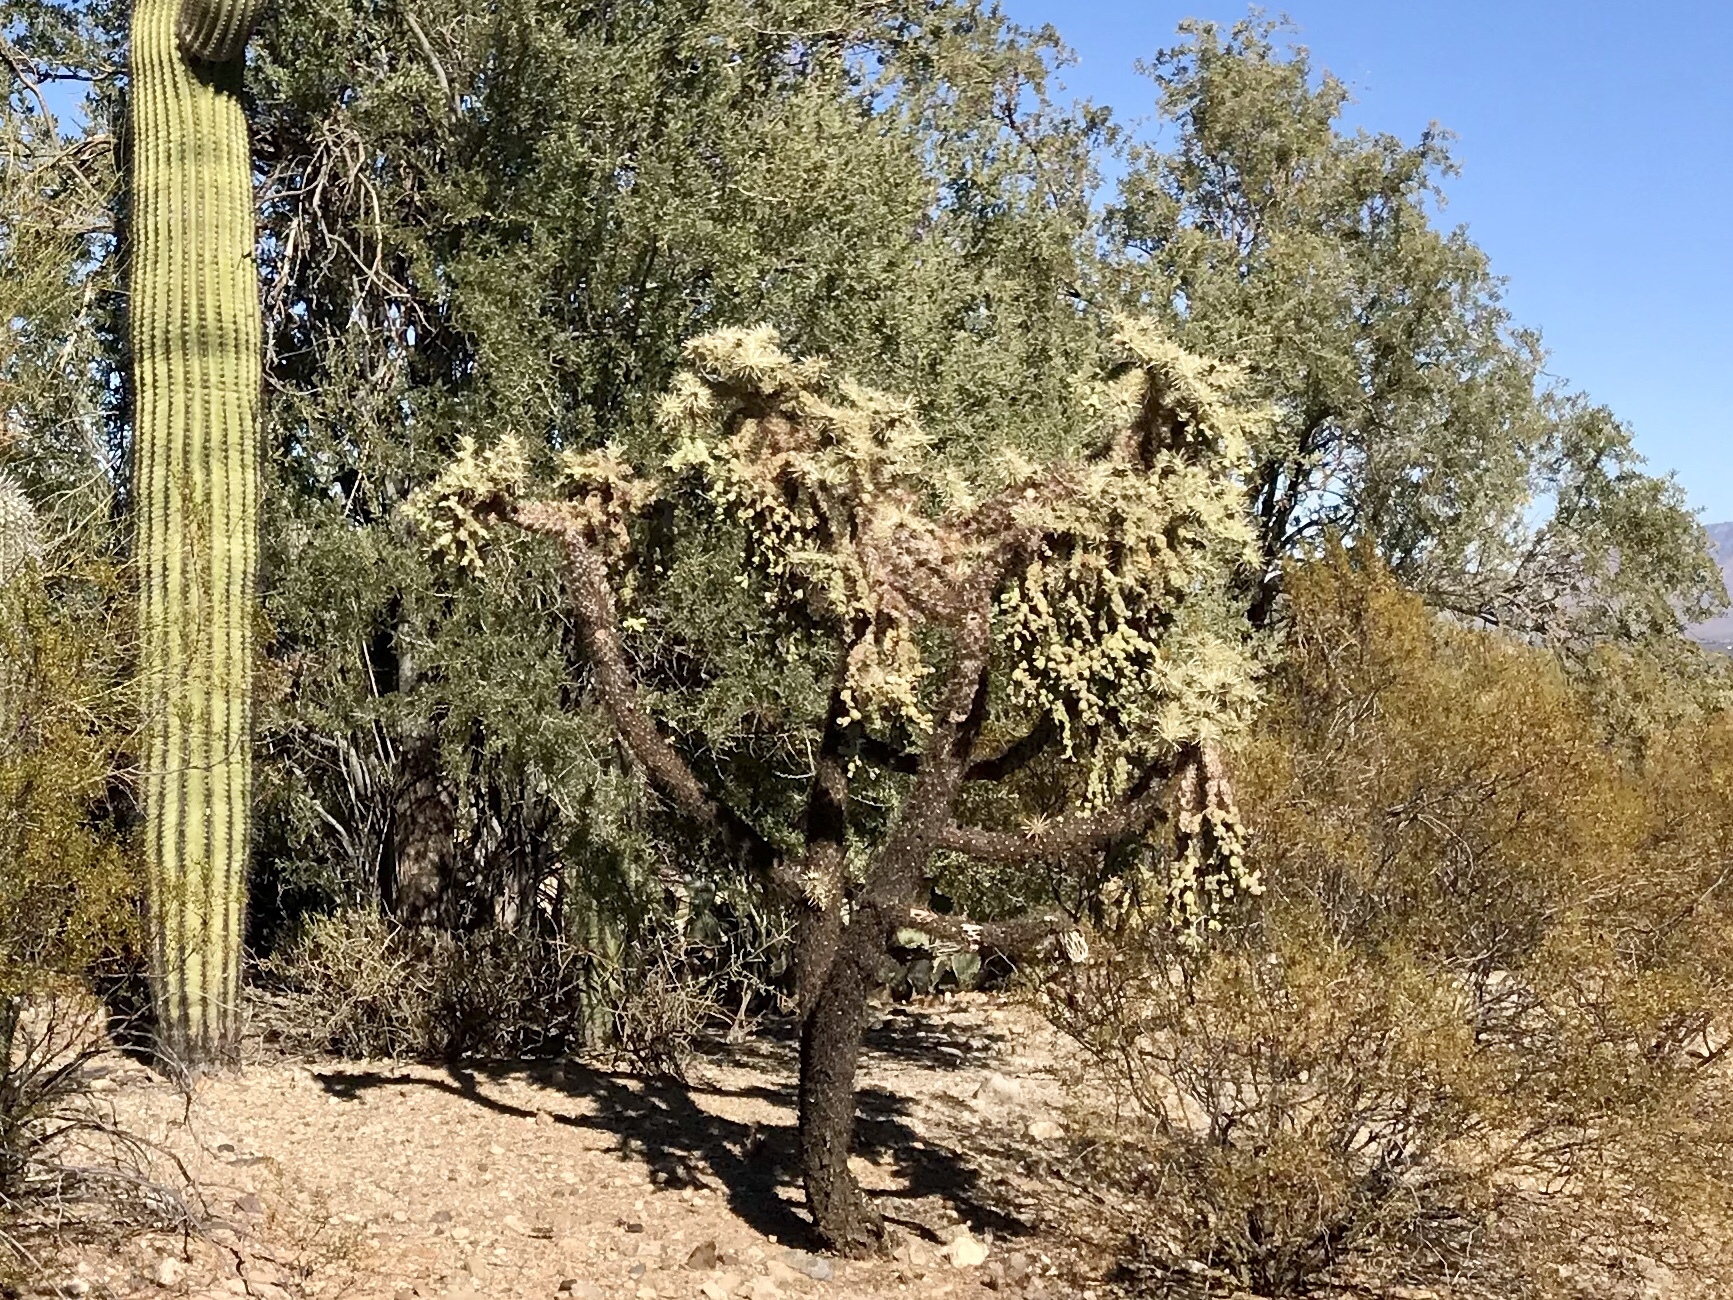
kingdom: Plantae
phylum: Tracheophyta
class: Magnoliopsida
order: Caryophyllales
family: Cactaceae
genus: Cylindropuntia
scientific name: Cylindropuntia fulgida
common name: Jumping cholla
